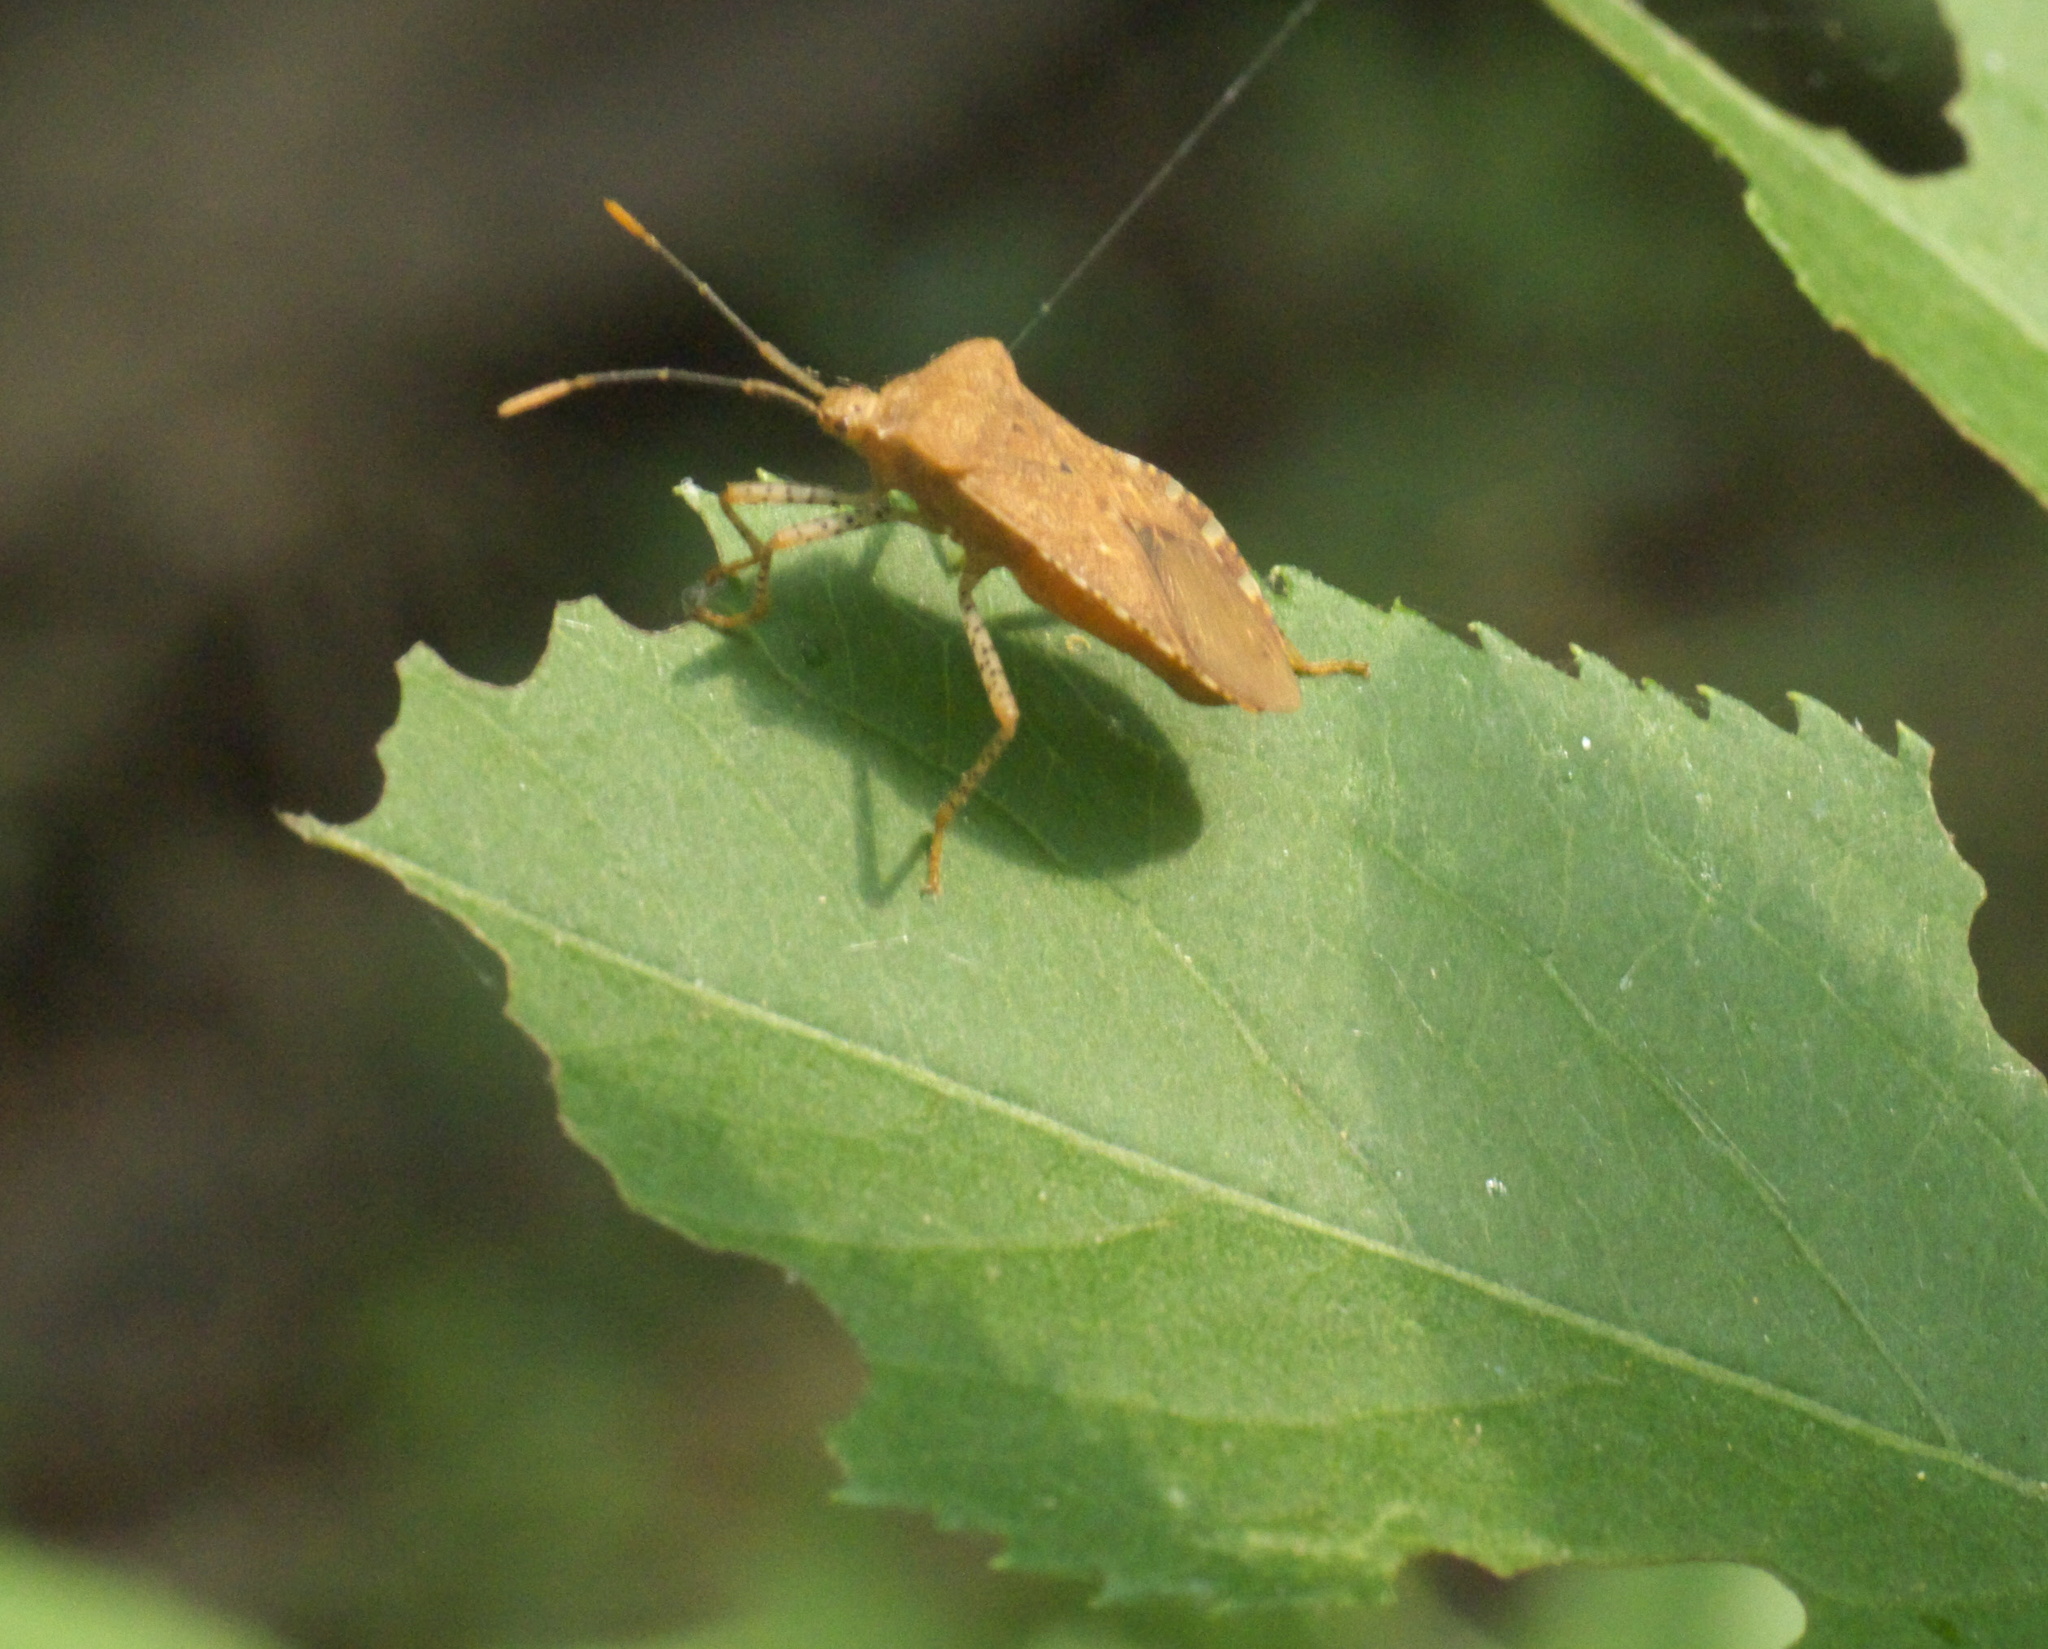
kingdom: Animalia
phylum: Arthropoda
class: Insecta
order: Hemiptera
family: Coreidae
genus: Anasa
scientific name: Anasa repetita
